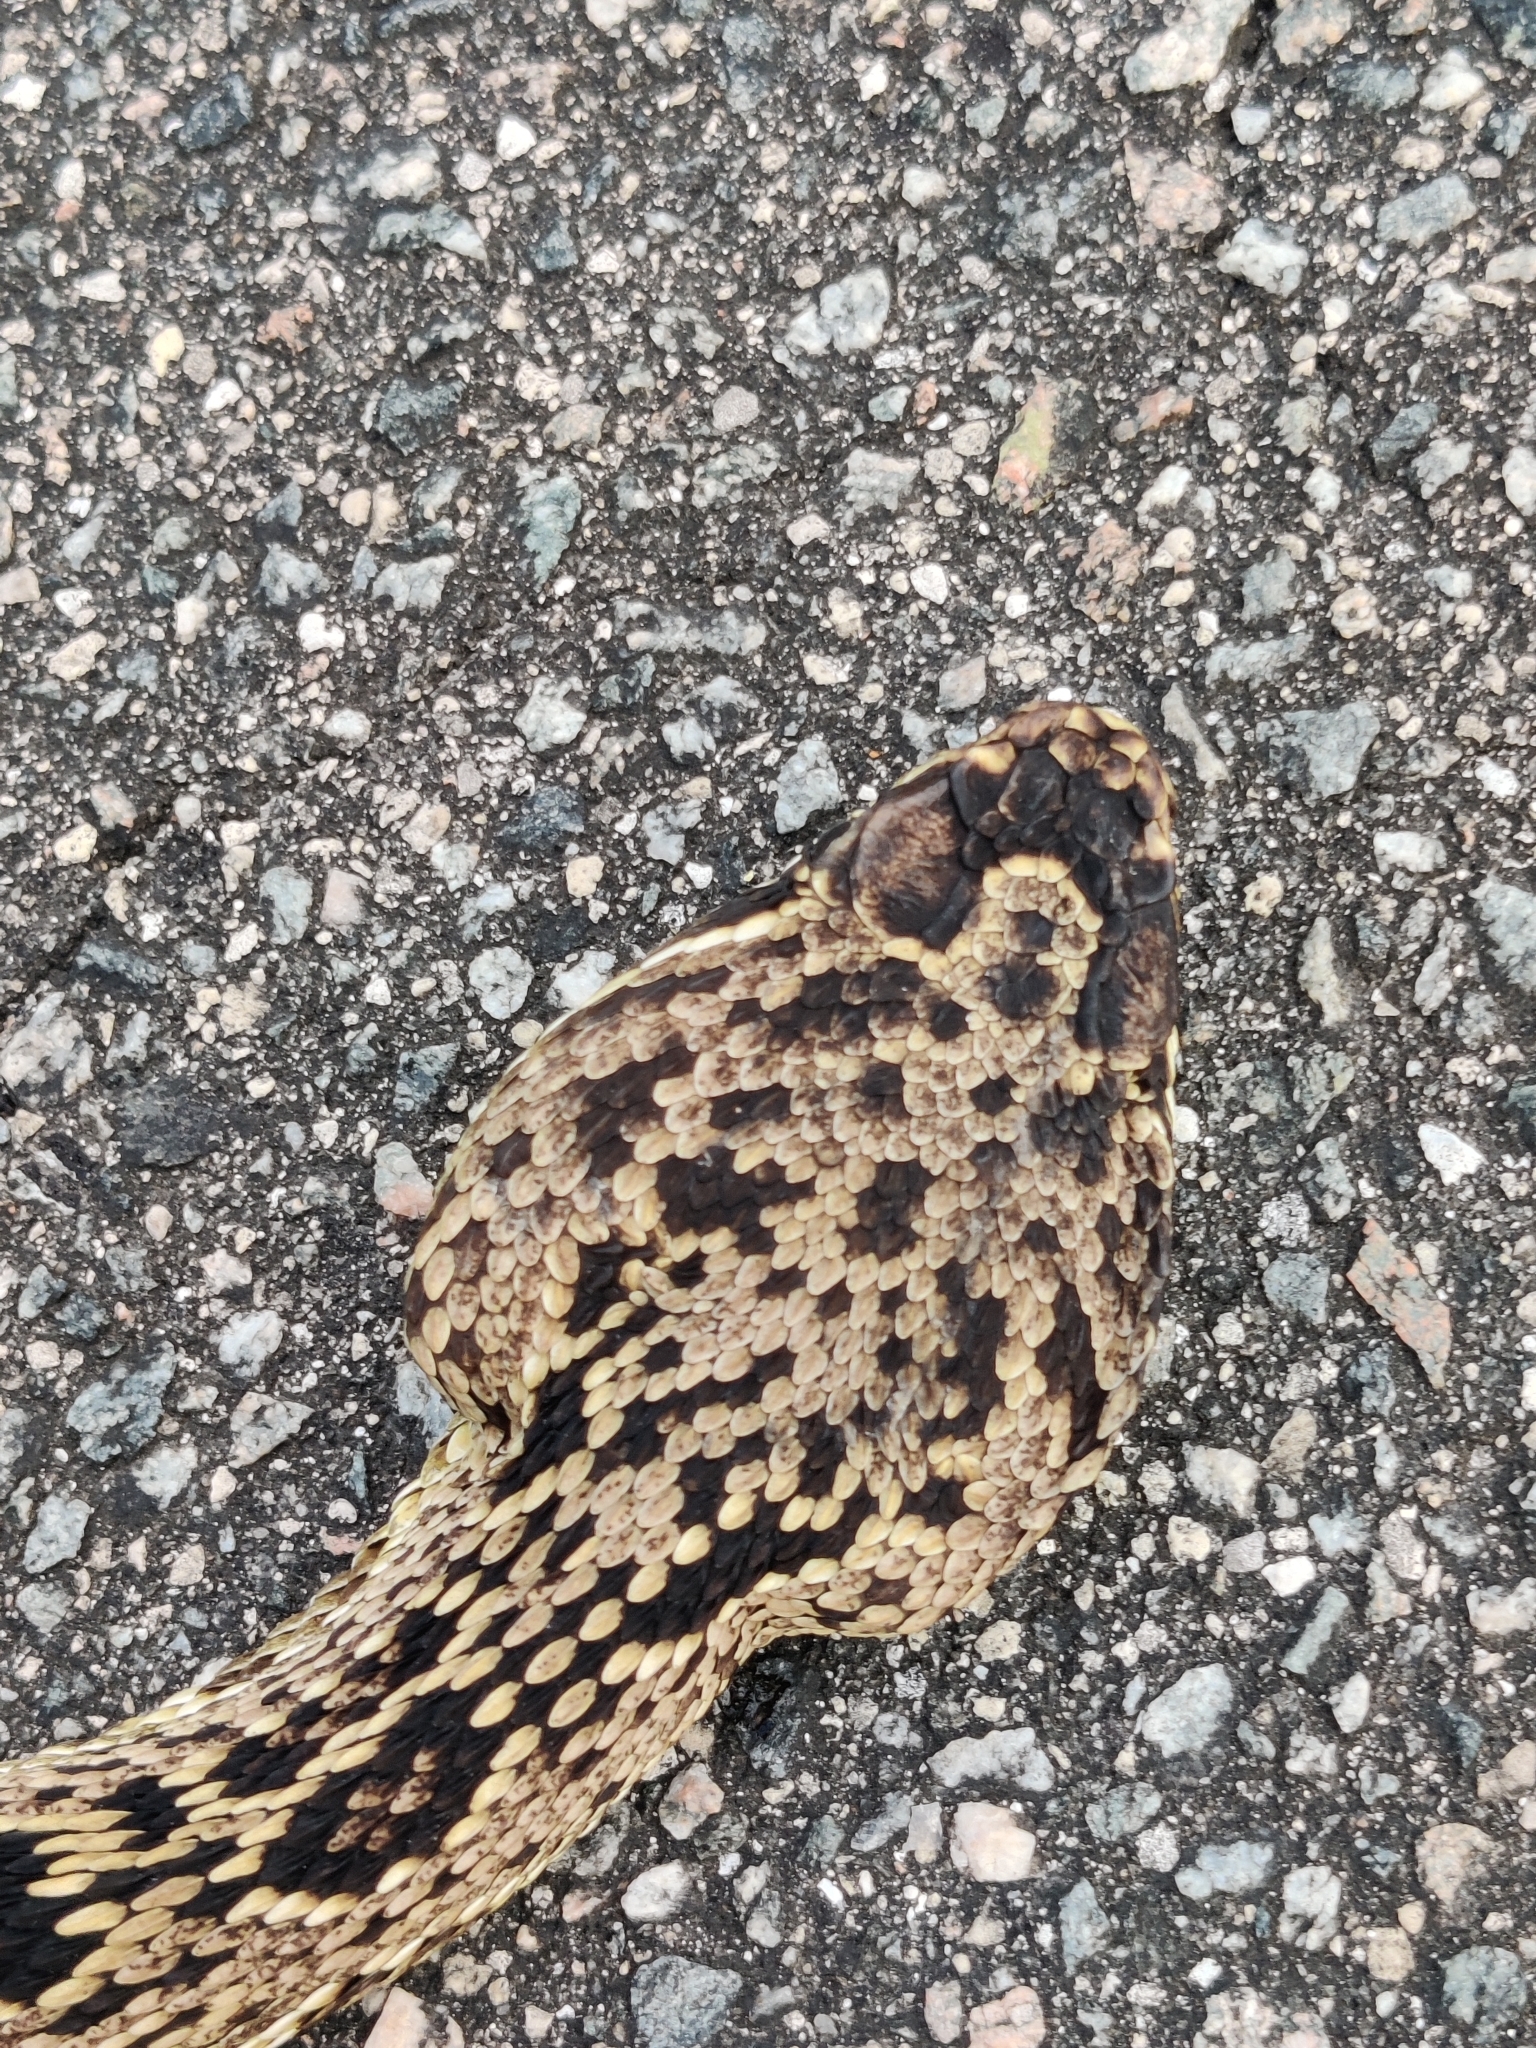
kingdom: Animalia
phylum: Chordata
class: Squamata
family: Viperidae
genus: Crotalus
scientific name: Crotalus adamanteus
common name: Eastern diamondback rattlesnake
